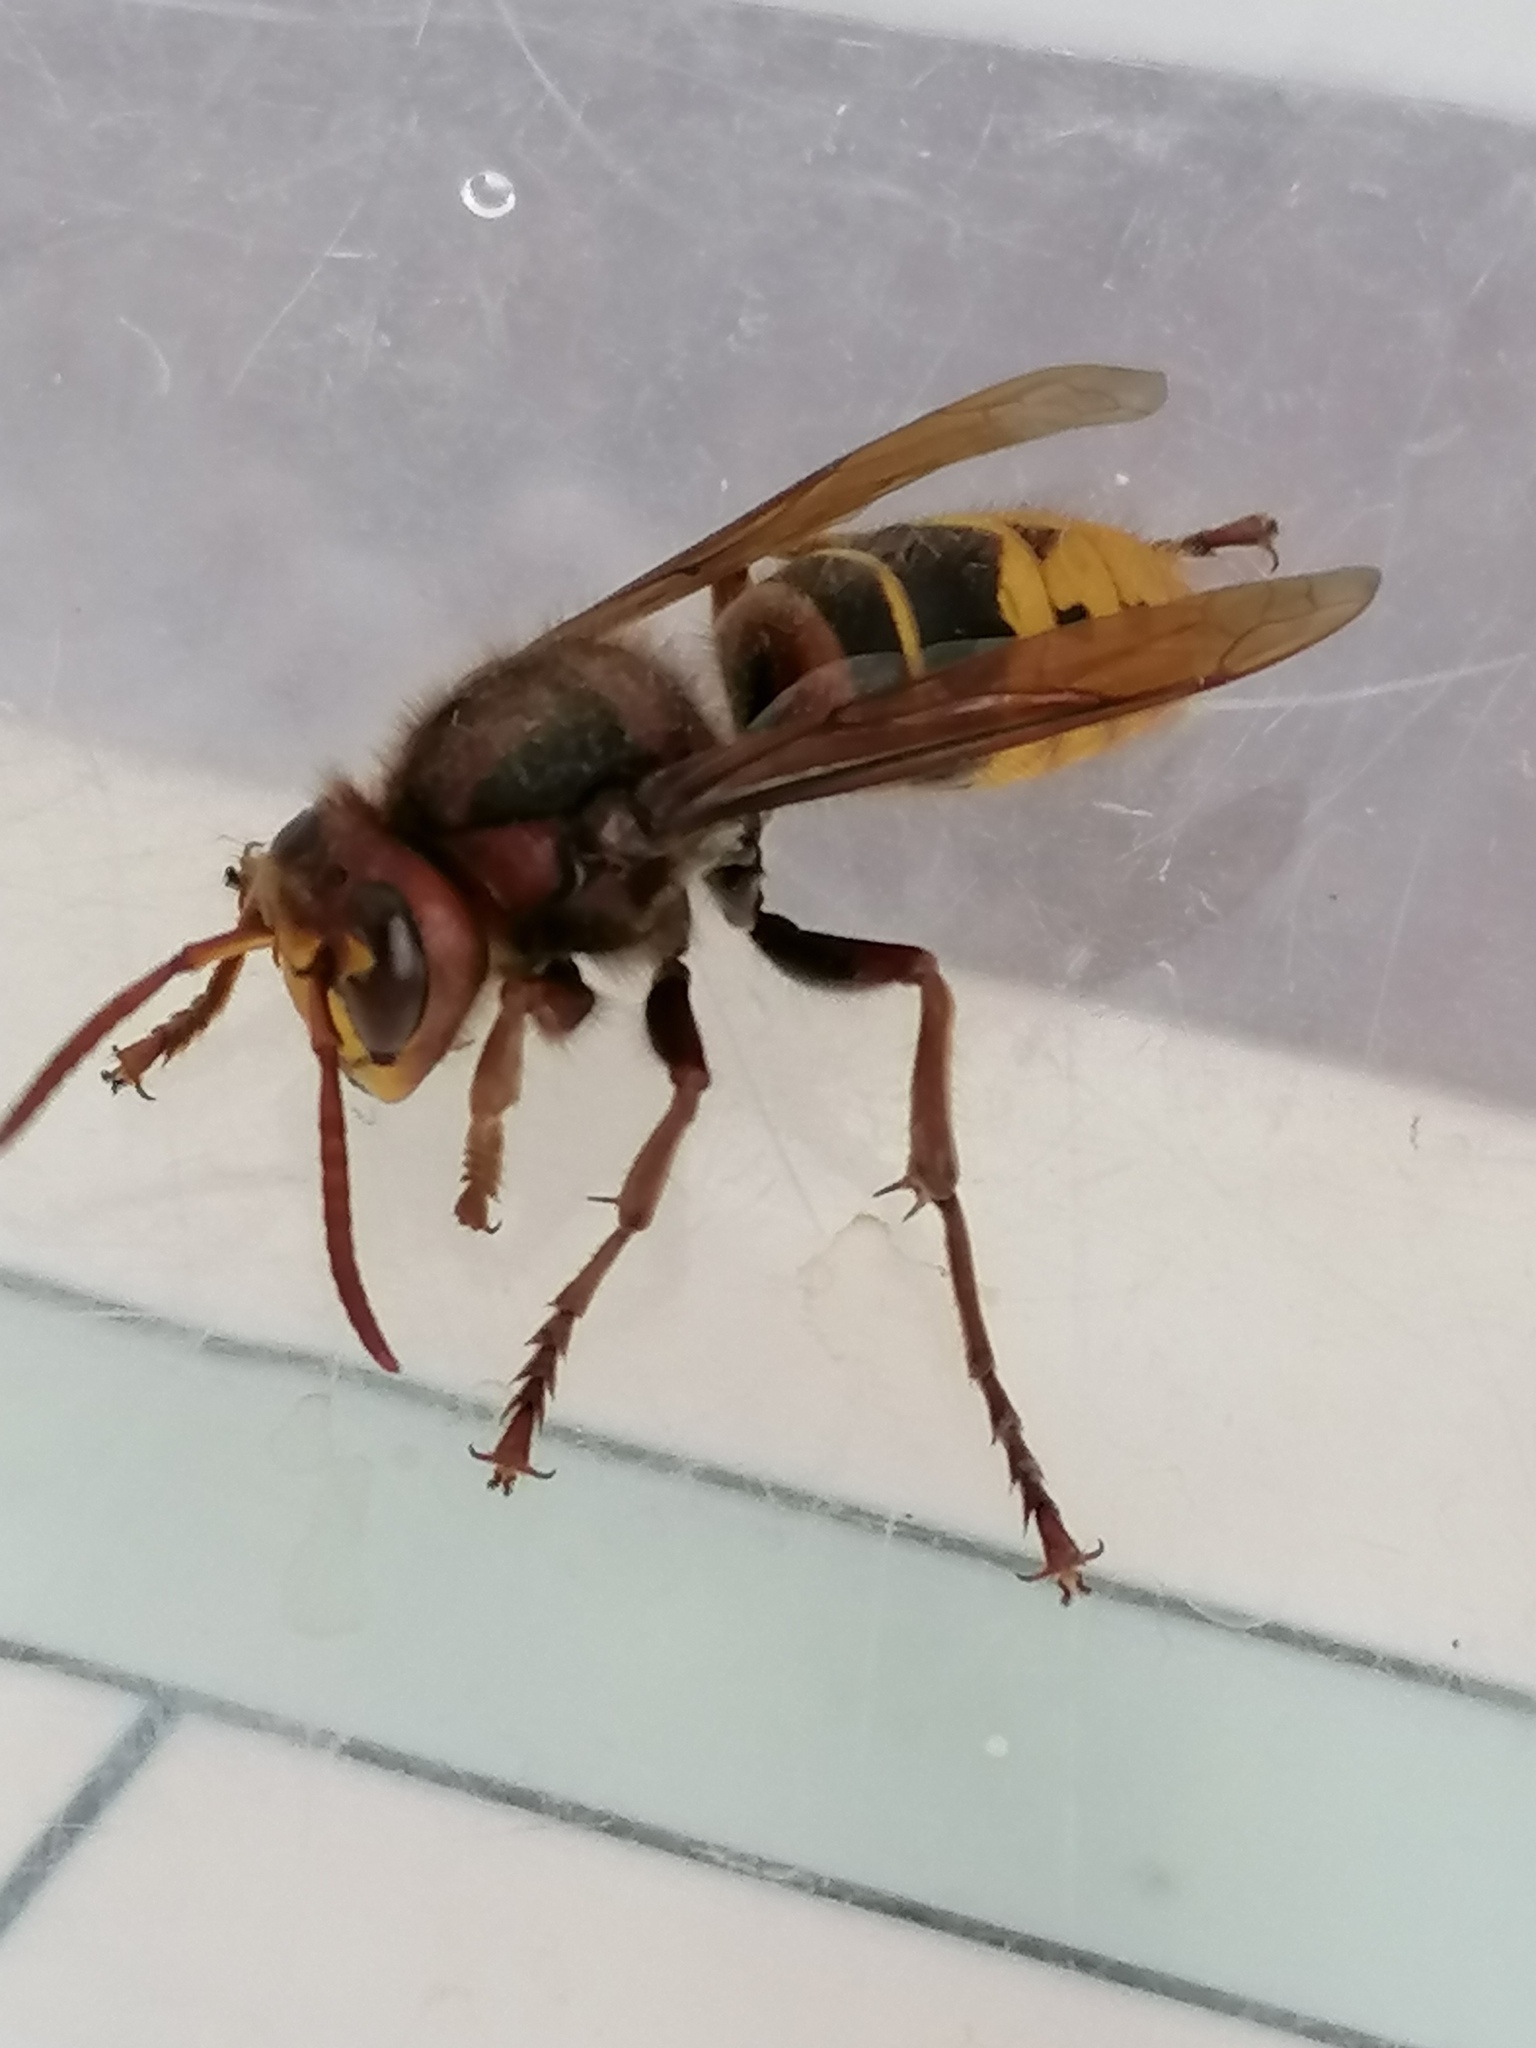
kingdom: Animalia
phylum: Arthropoda
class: Insecta
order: Hymenoptera
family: Vespidae
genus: Vespa
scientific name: Vespa crabro
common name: Hornet
